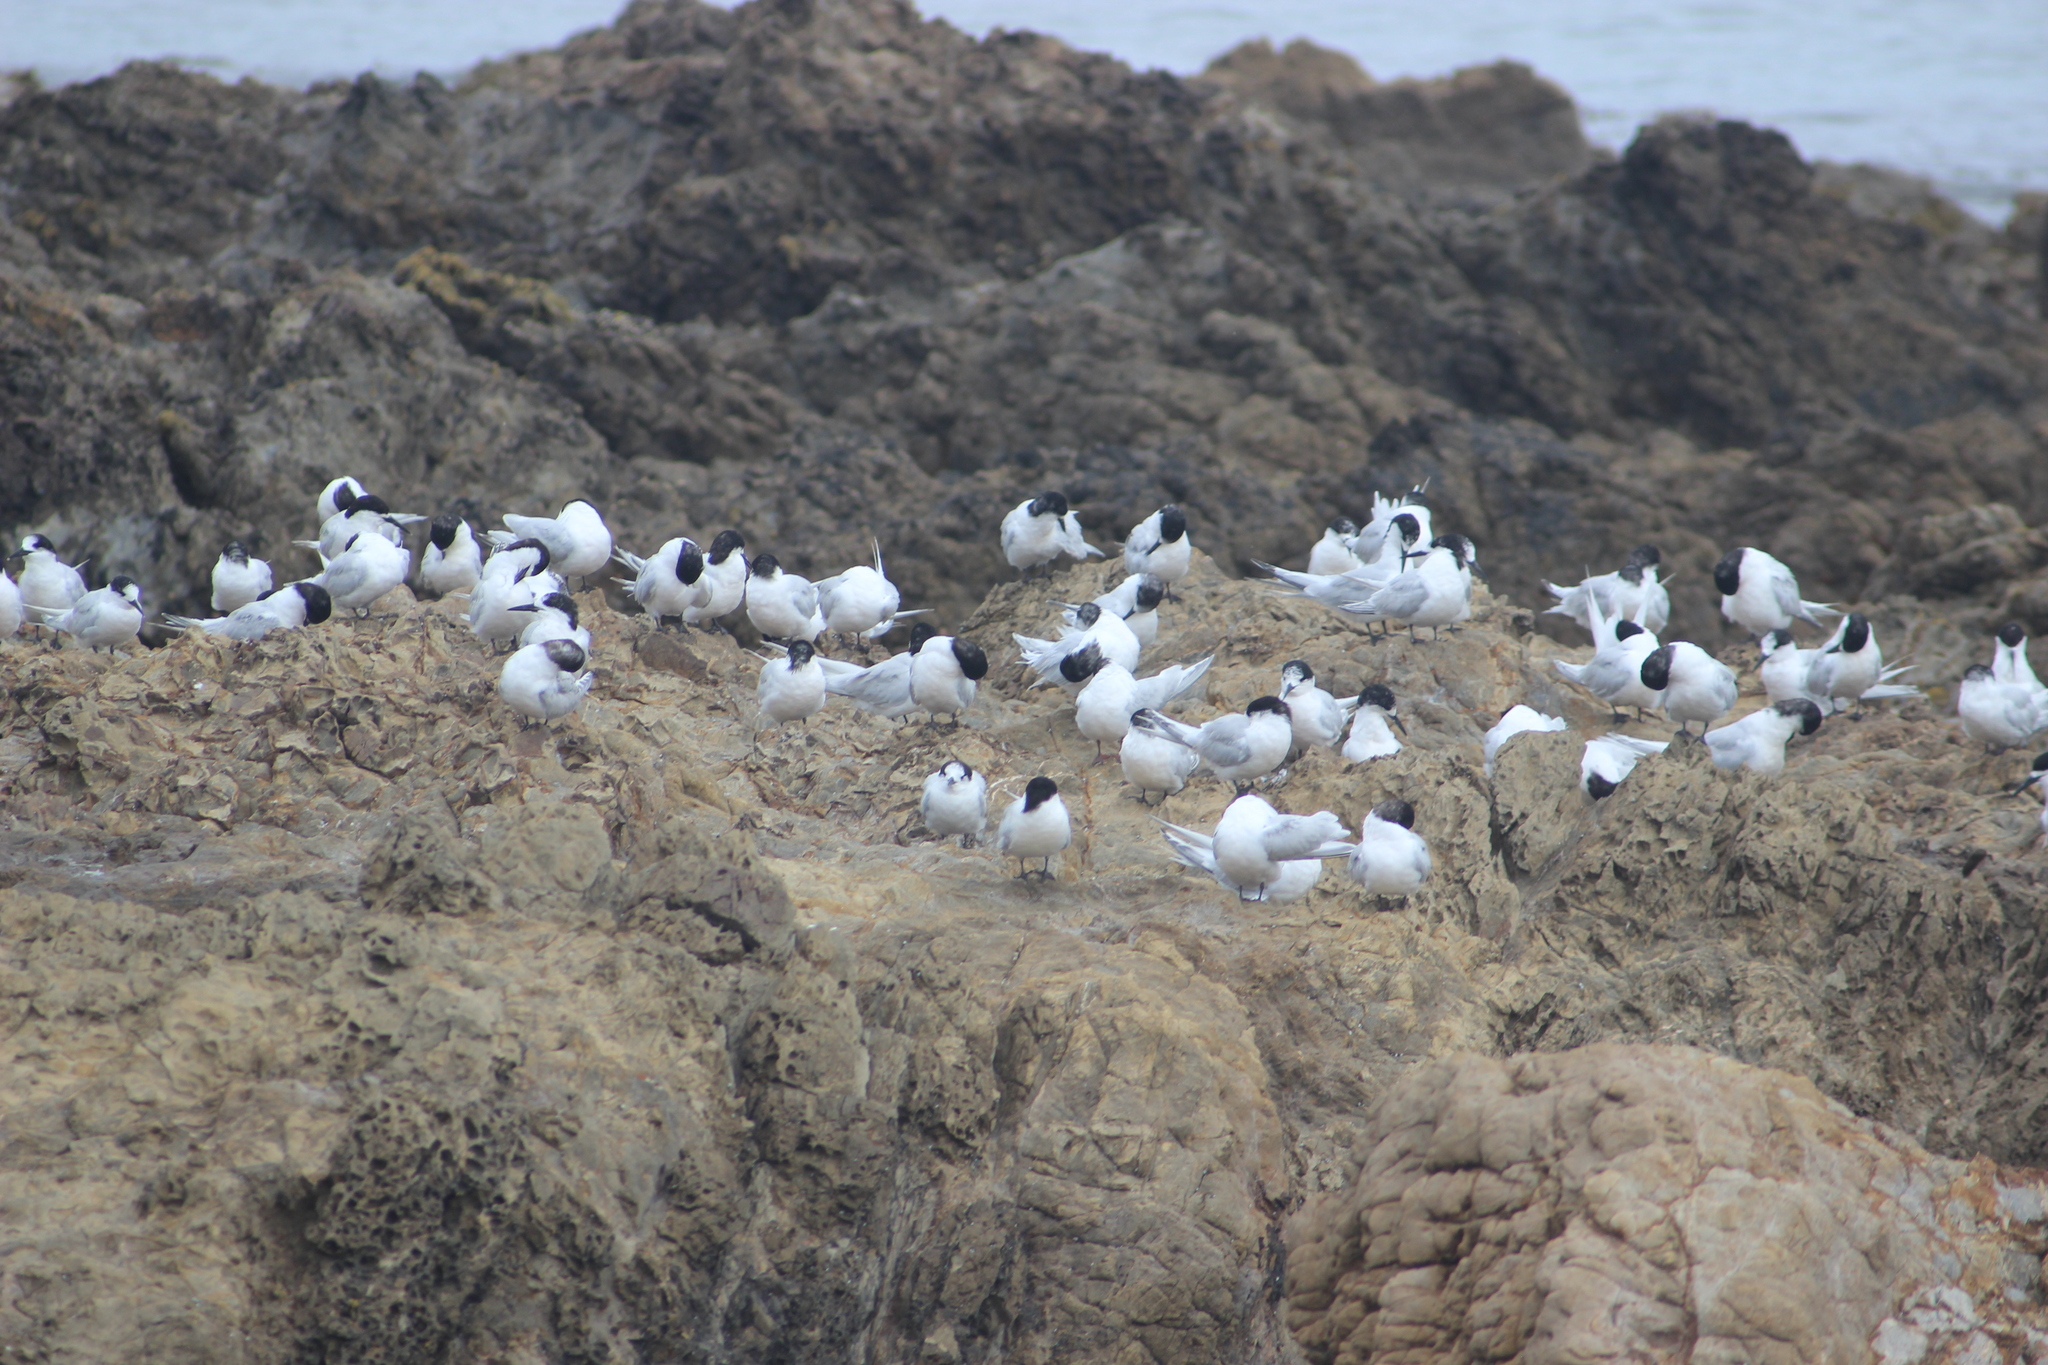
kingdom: Animalia
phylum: Chordata
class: Aves
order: Charadriiformes
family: Laridae
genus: Sterna
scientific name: Sterna striata
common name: White-fronted tern
